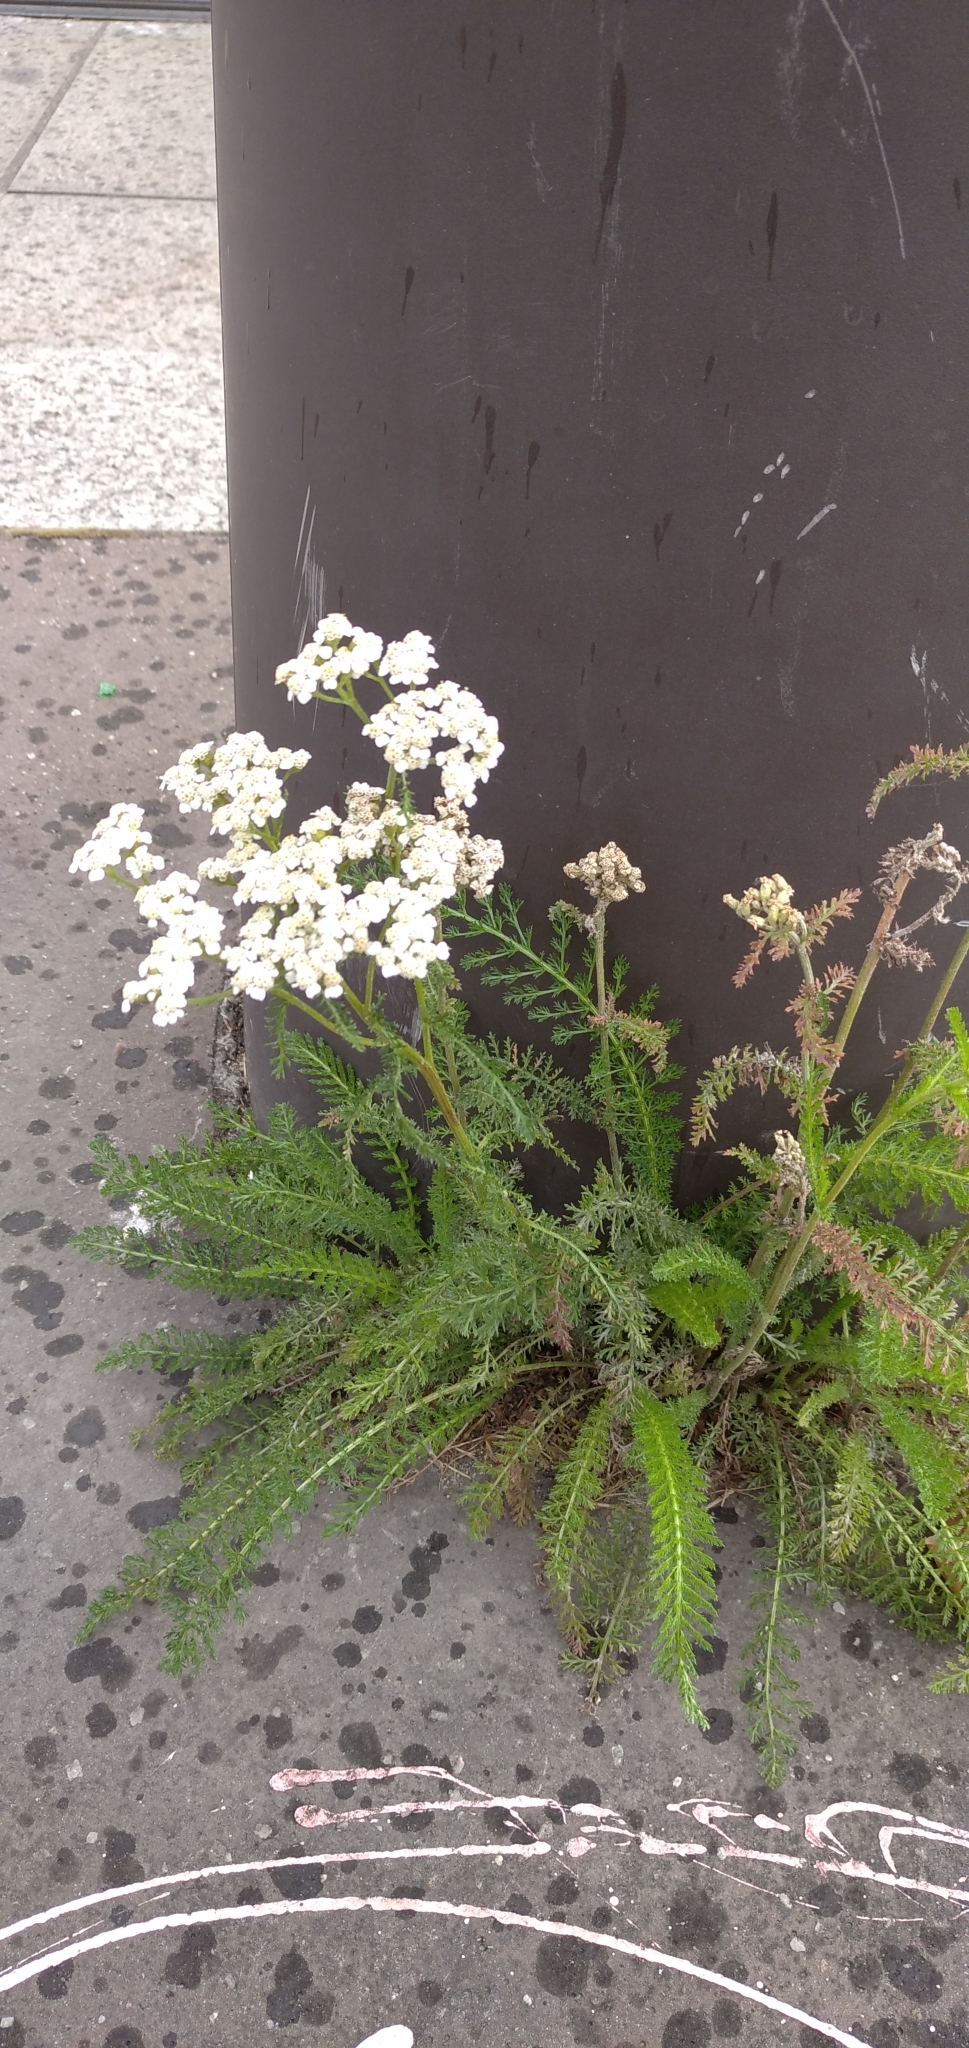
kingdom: Plantae
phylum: Tracheophyta
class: Magnoliopsida
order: Asterales
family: Asteraceae
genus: Achillea
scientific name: Achillea millefolium
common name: Yarrow
